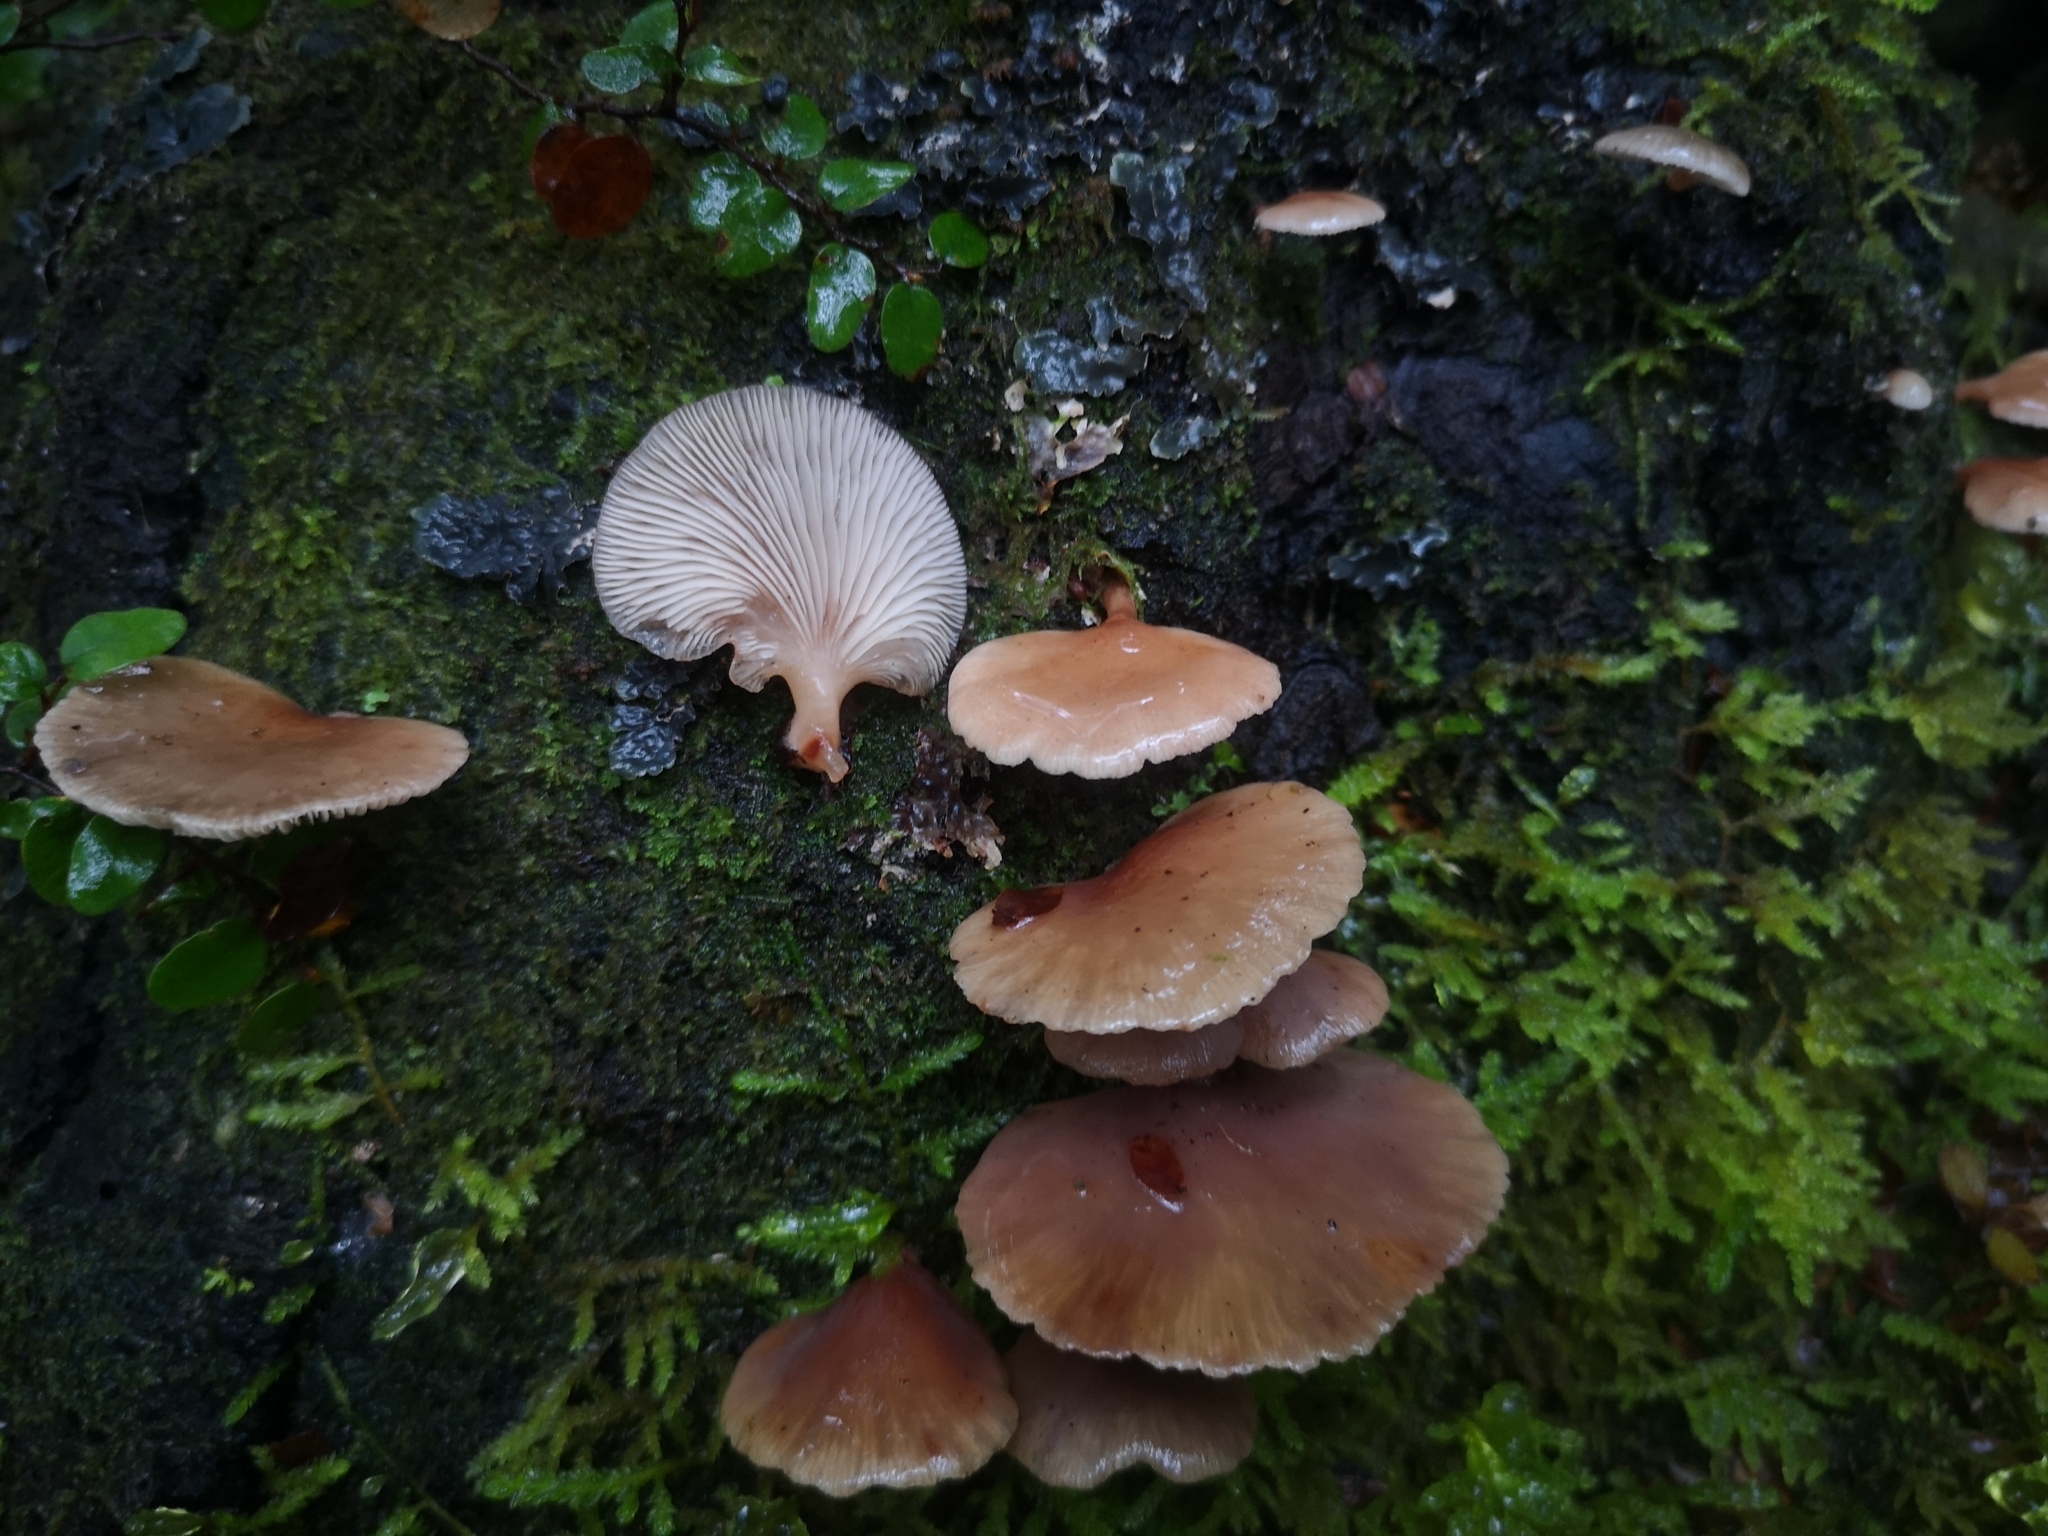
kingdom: Fungi
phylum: Basidiomycota
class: Agaricomycetes
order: Agaricales
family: Mycenaceae
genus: Panellus
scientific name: Panellus longinquus
